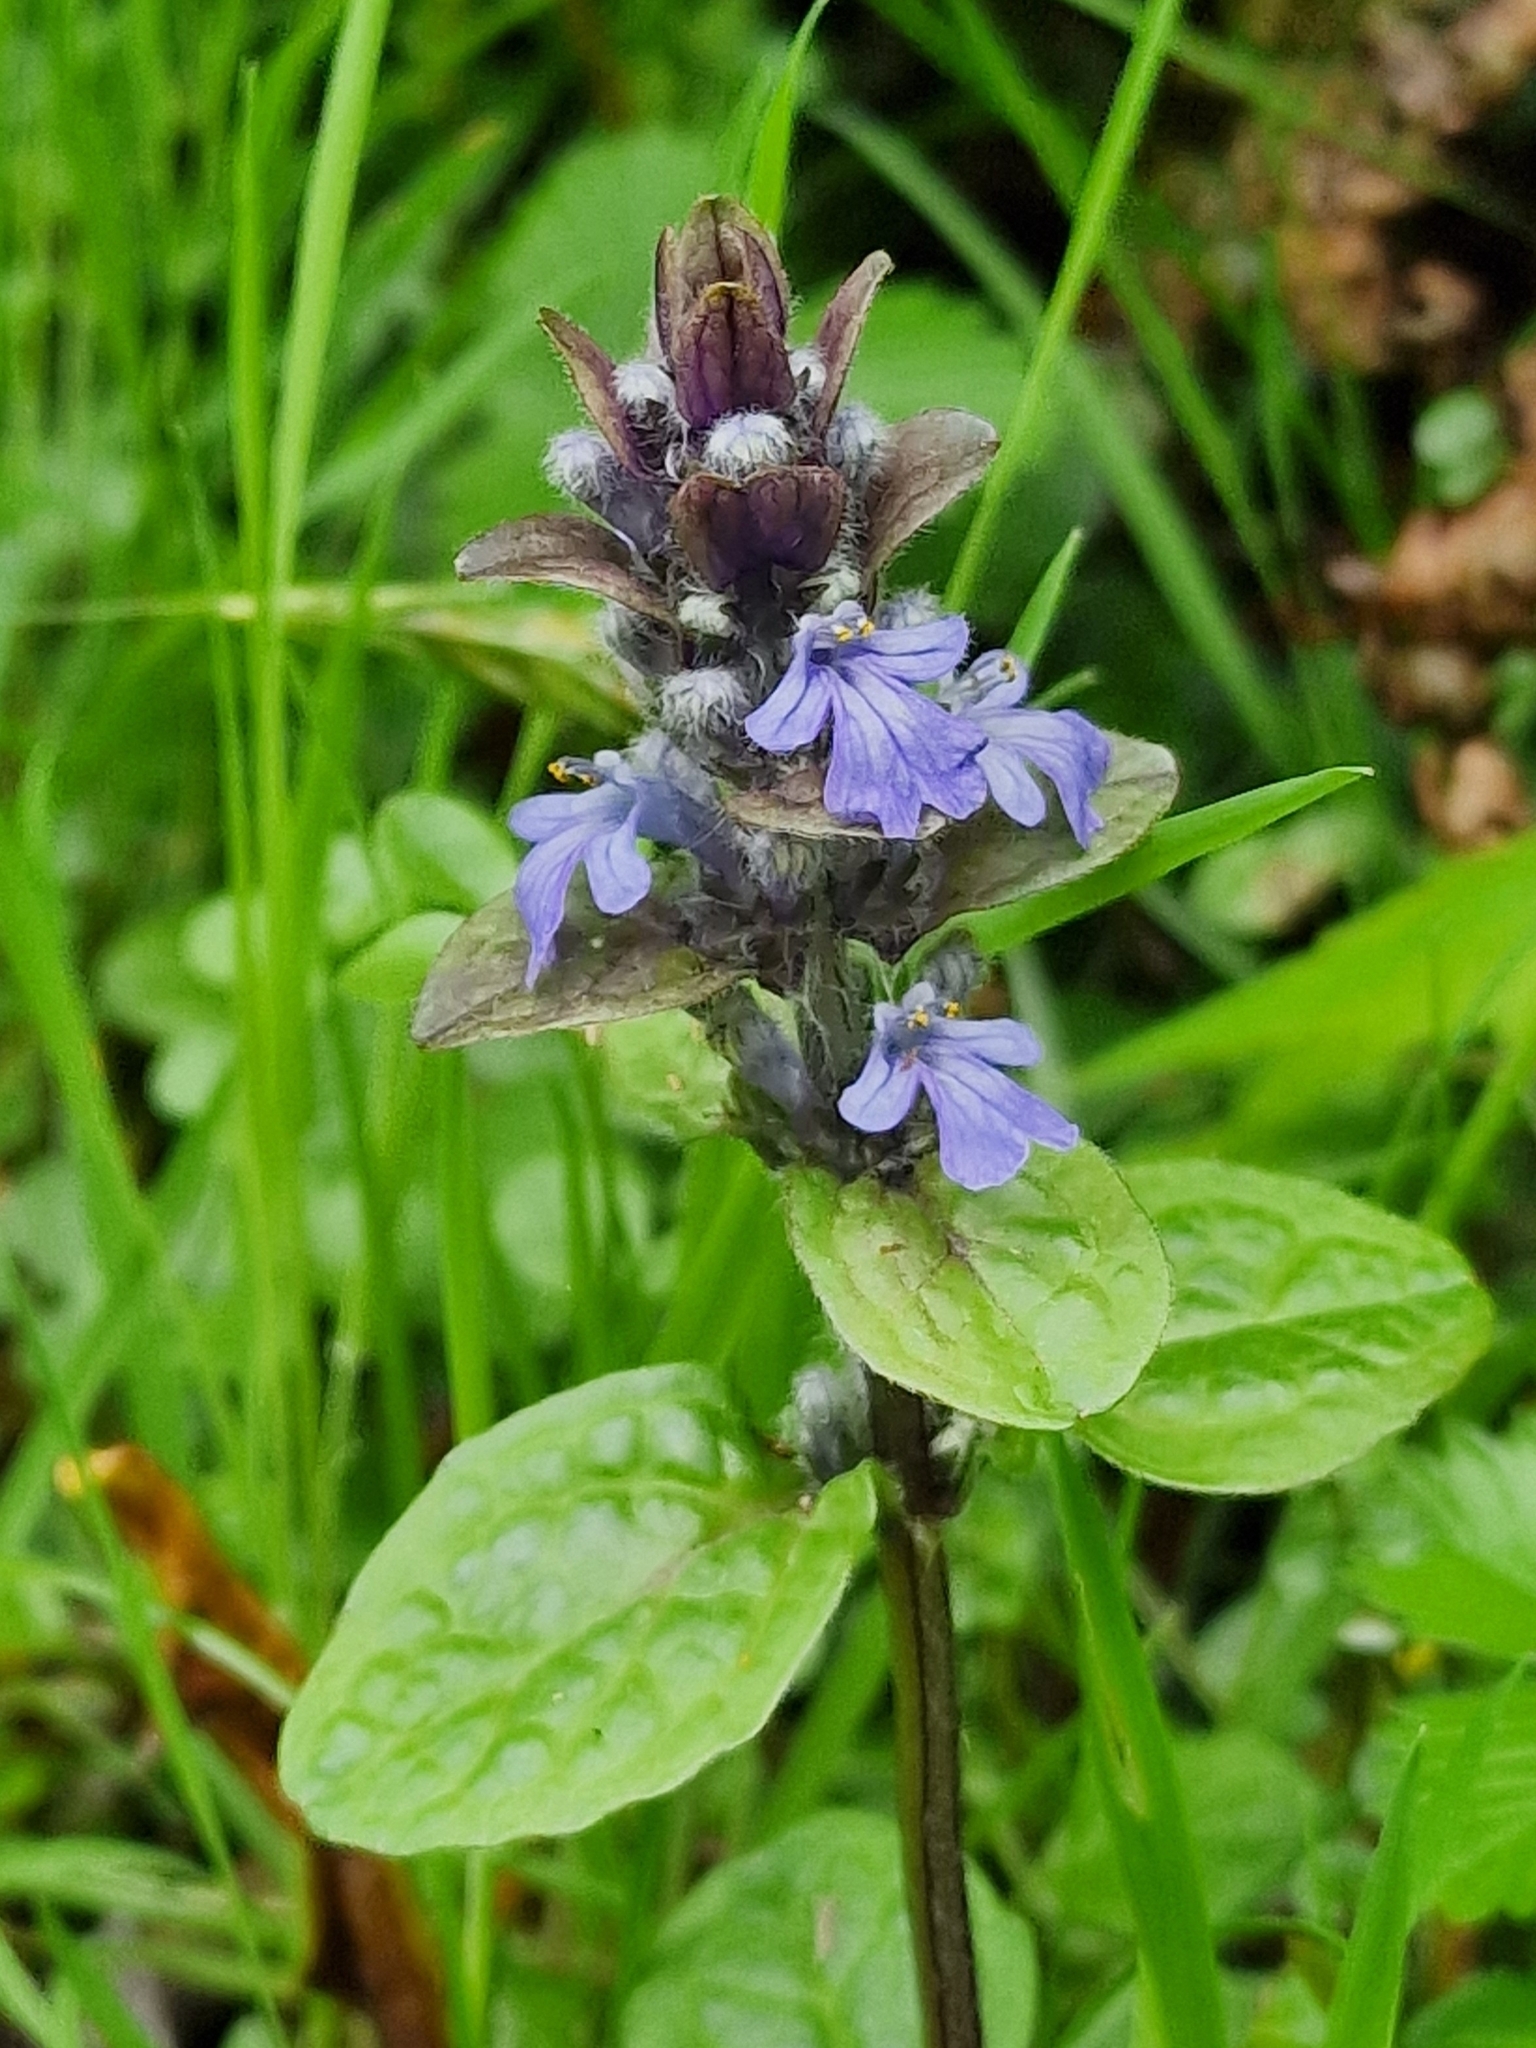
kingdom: Plantae
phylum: Tracheophyta
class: Magnoliopsida
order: Lamiales
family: Lamiaceae
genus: Ajuga
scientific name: Ajuga reptans
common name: Bugle
